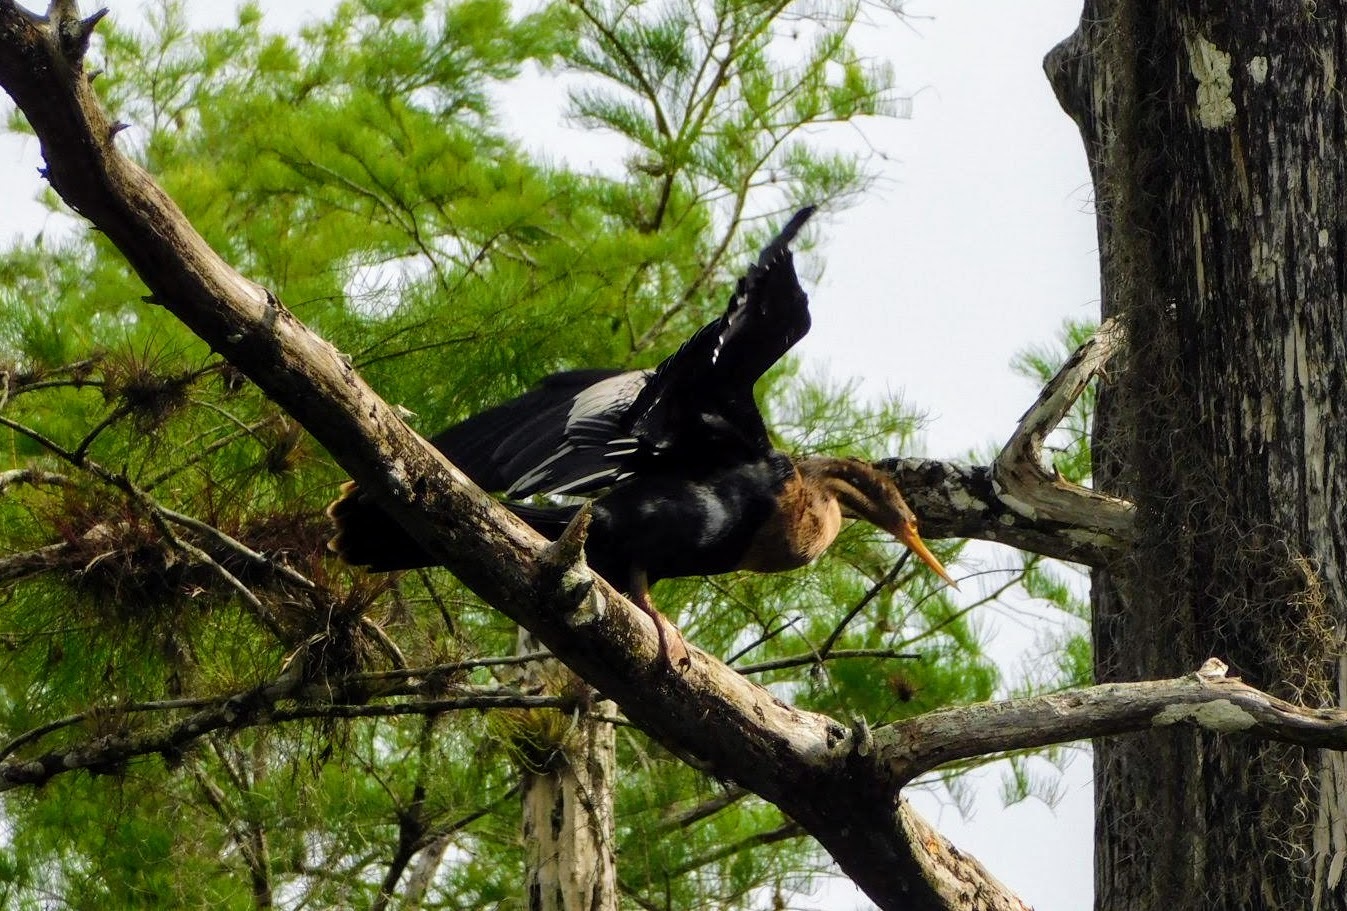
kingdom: Animalia
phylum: Chordata
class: Aves
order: Suliformes
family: Anhingidae
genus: Anhinga
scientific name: Anhinga anhinga
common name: Anhinga
